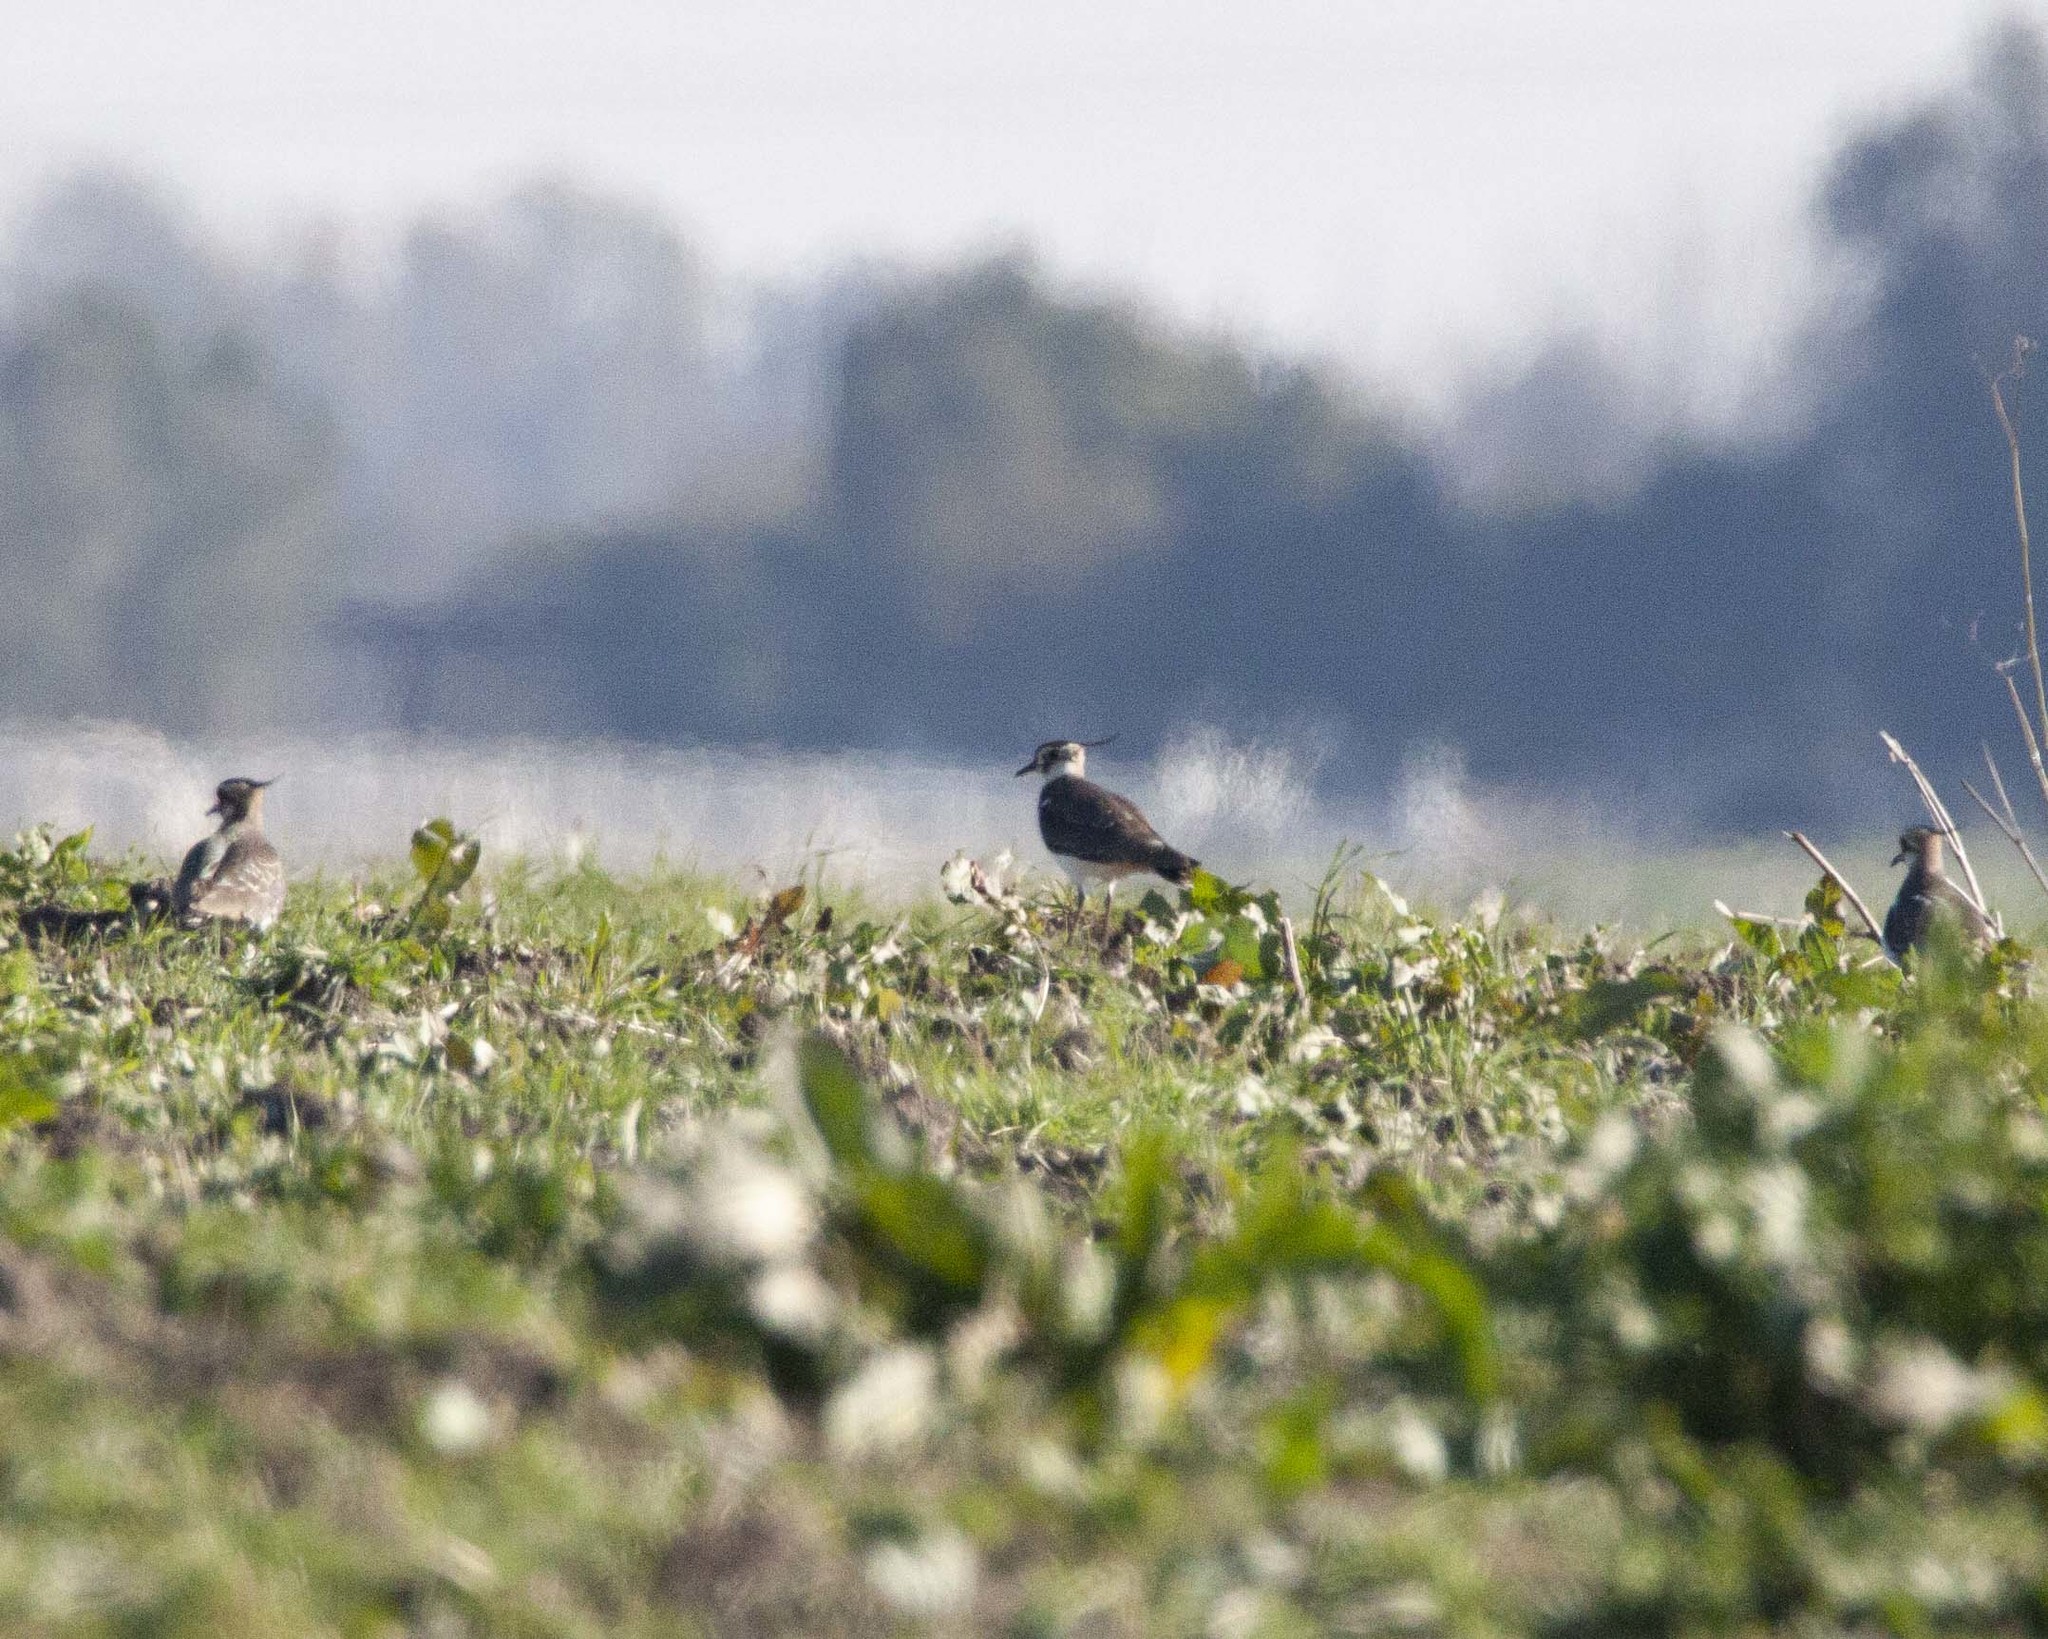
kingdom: Animalia
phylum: Chordata
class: Aves
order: Charadriiformes
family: Charadriidae
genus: Vanellus
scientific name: Vanellus vanellus
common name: Northern lapwing
